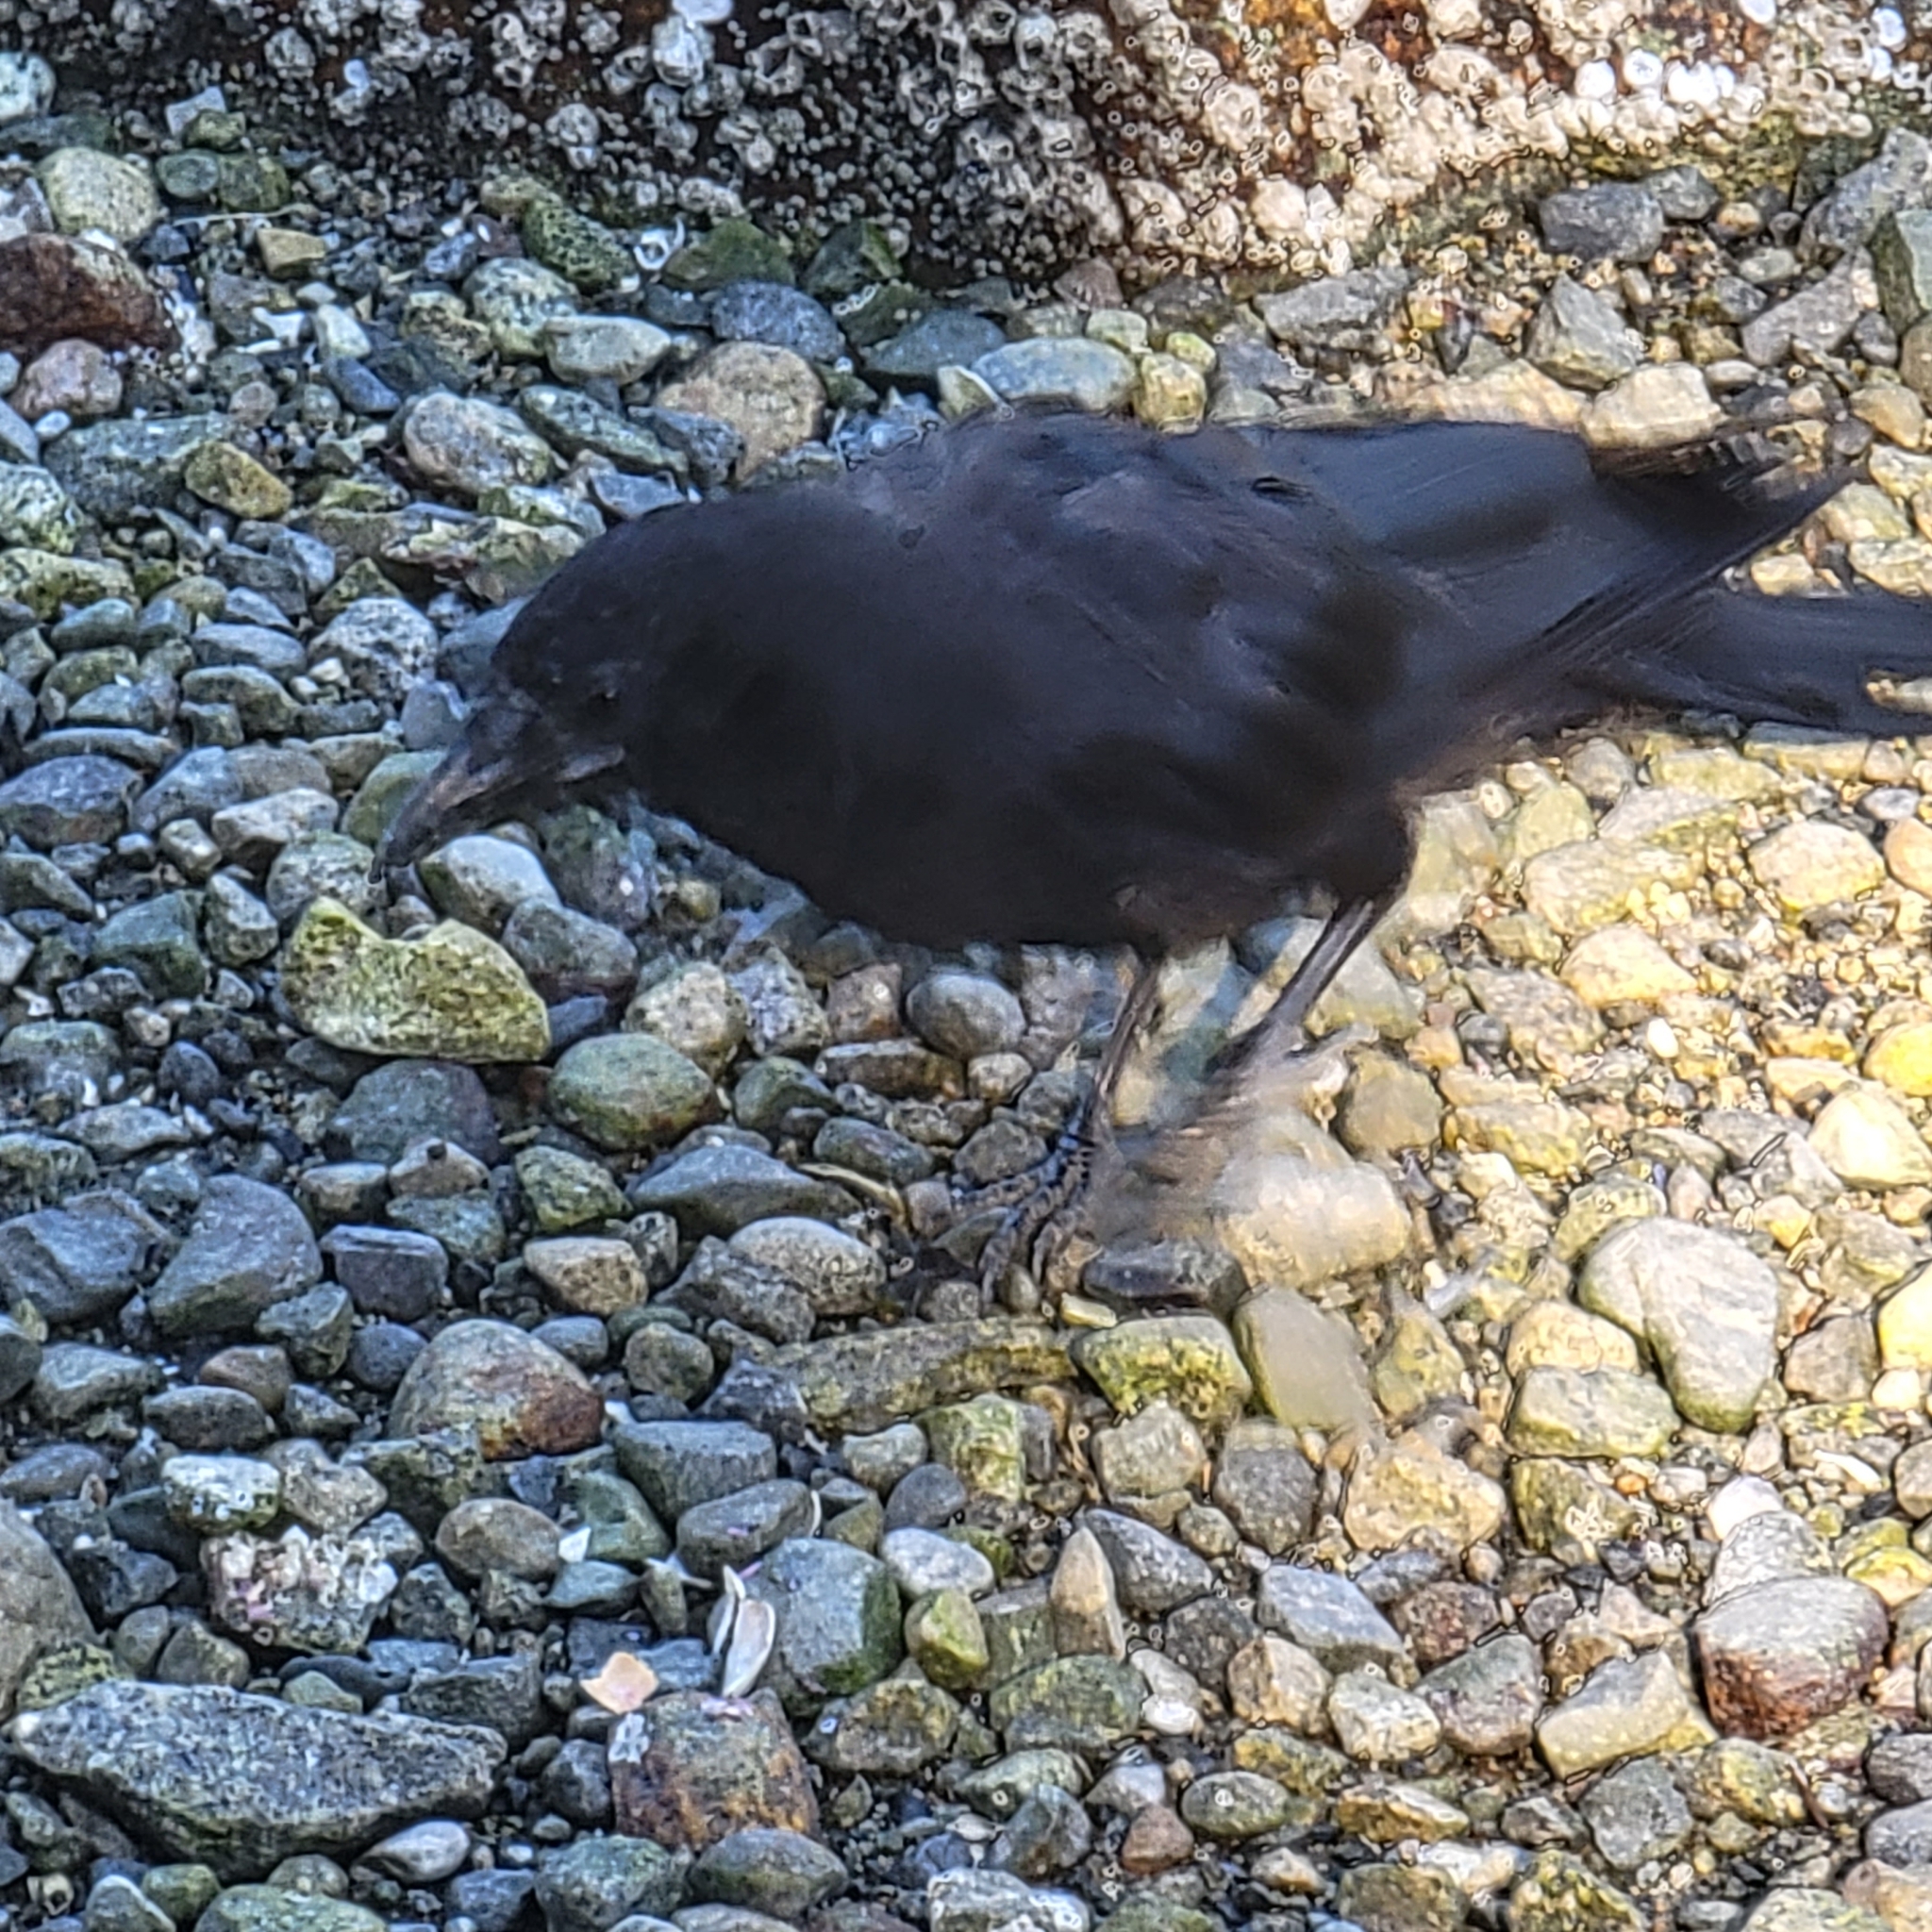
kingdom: Animalia
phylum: Chordata
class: Aves
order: Passeriformes
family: Corvidae
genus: Corvus
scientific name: Corvus brachyrhynchos
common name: American crow
